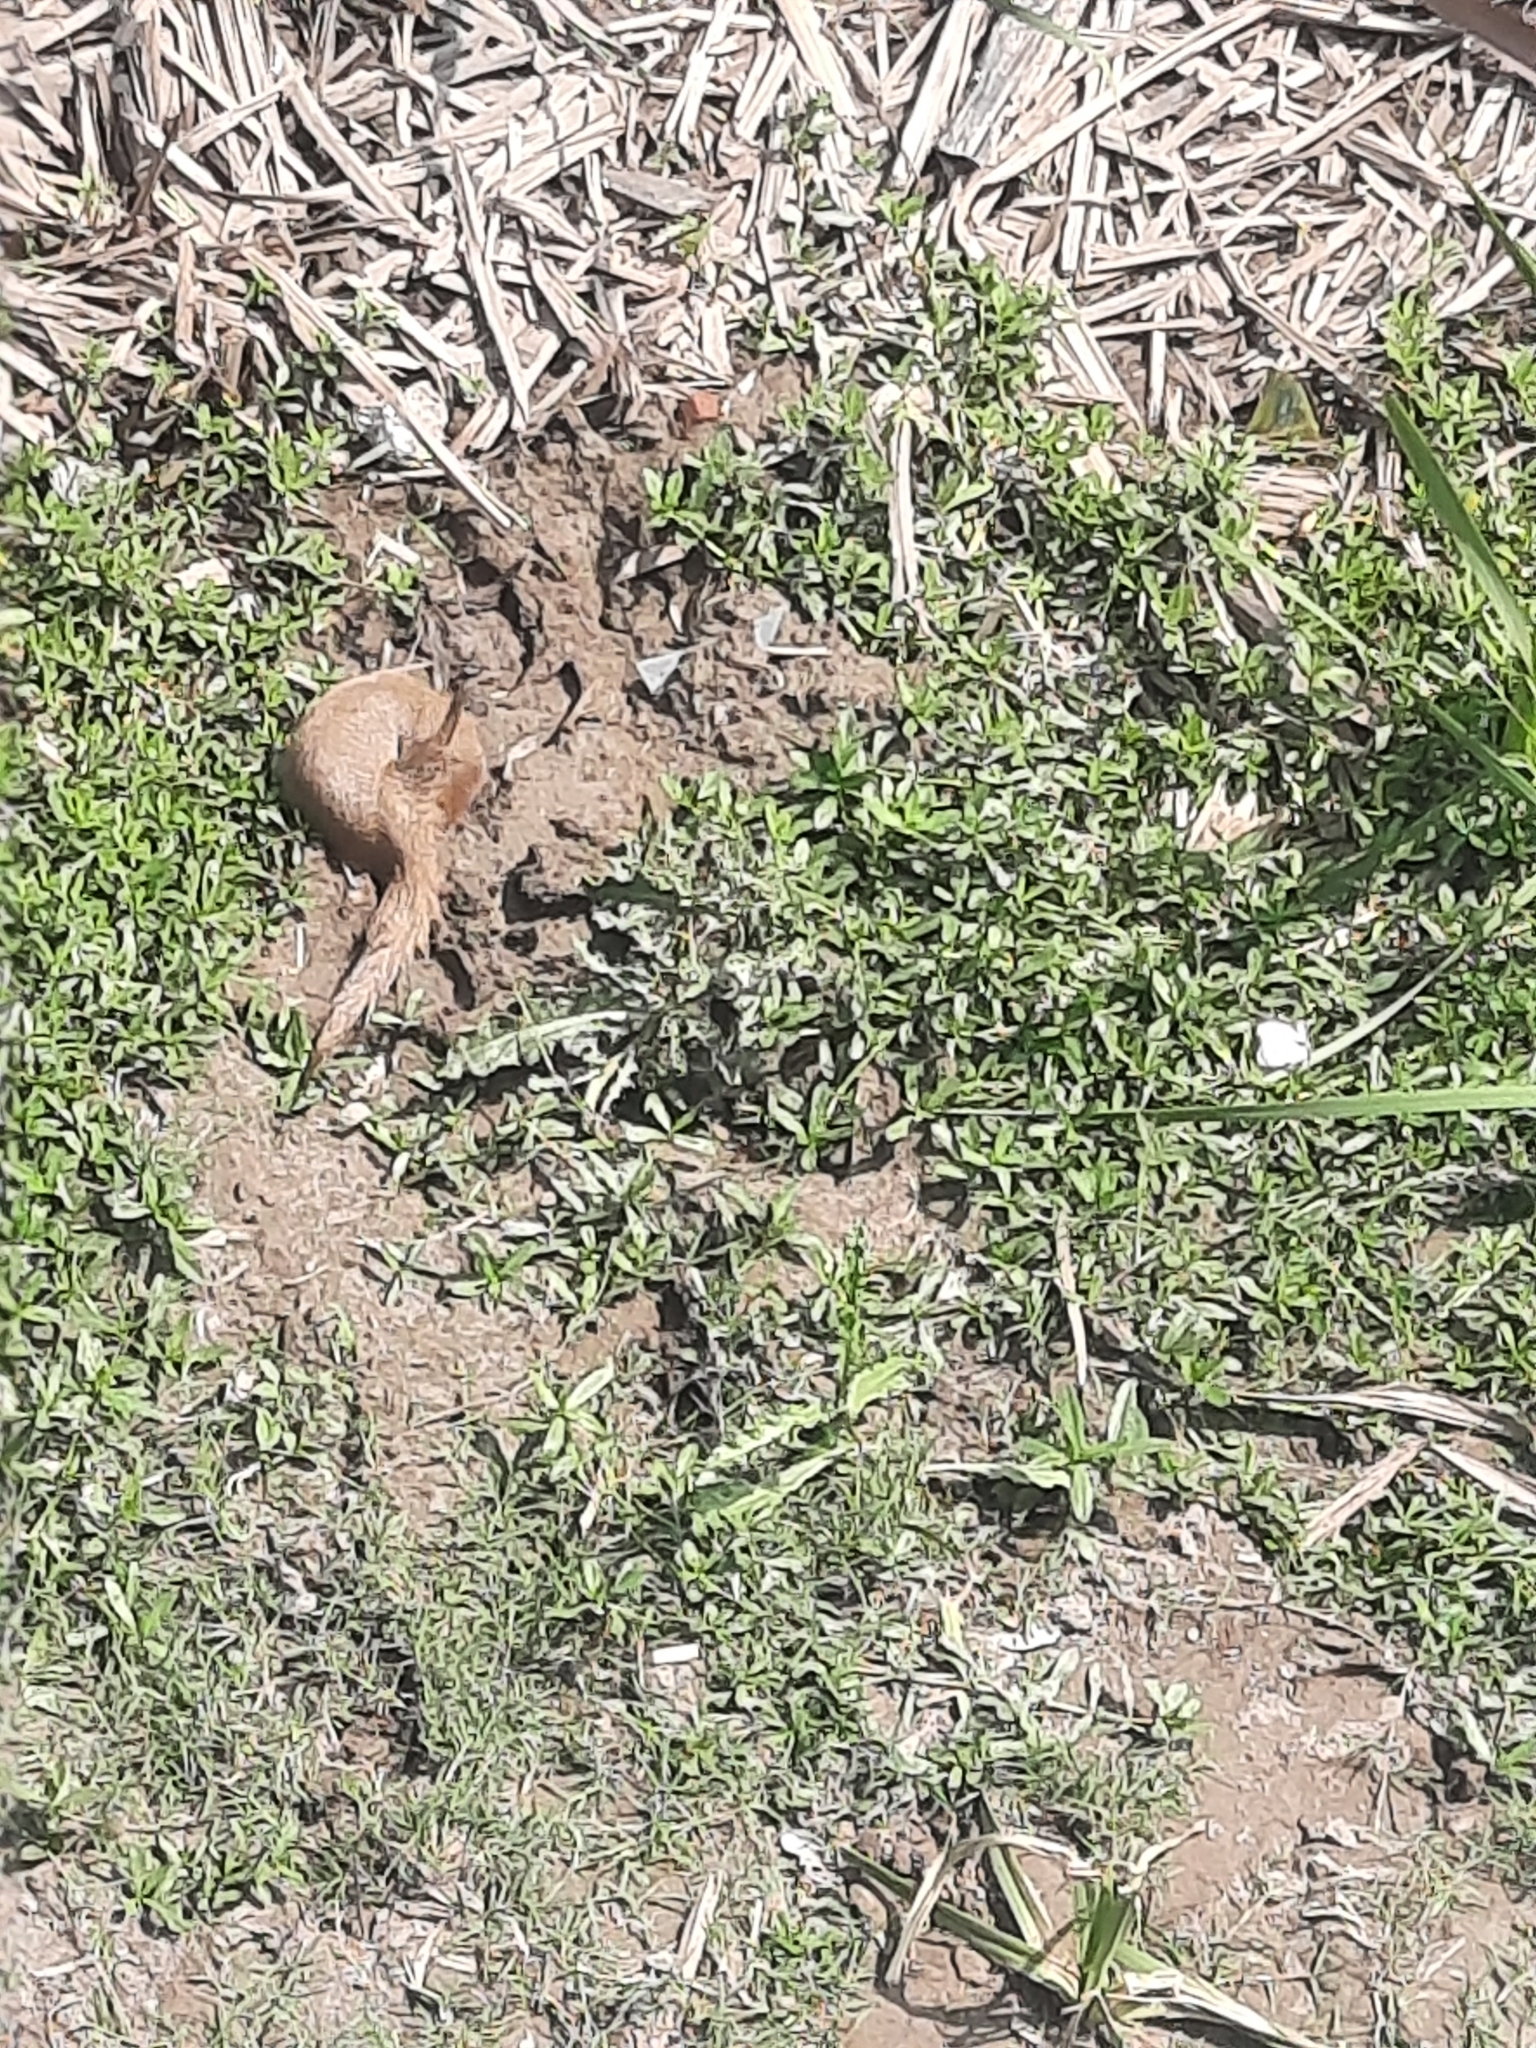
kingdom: Animalia
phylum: Chordata
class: Mammalia
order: Carnivora
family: Herpestidae
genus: Herpestes
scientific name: Herpestes javanicus
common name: Small asian mongoose
